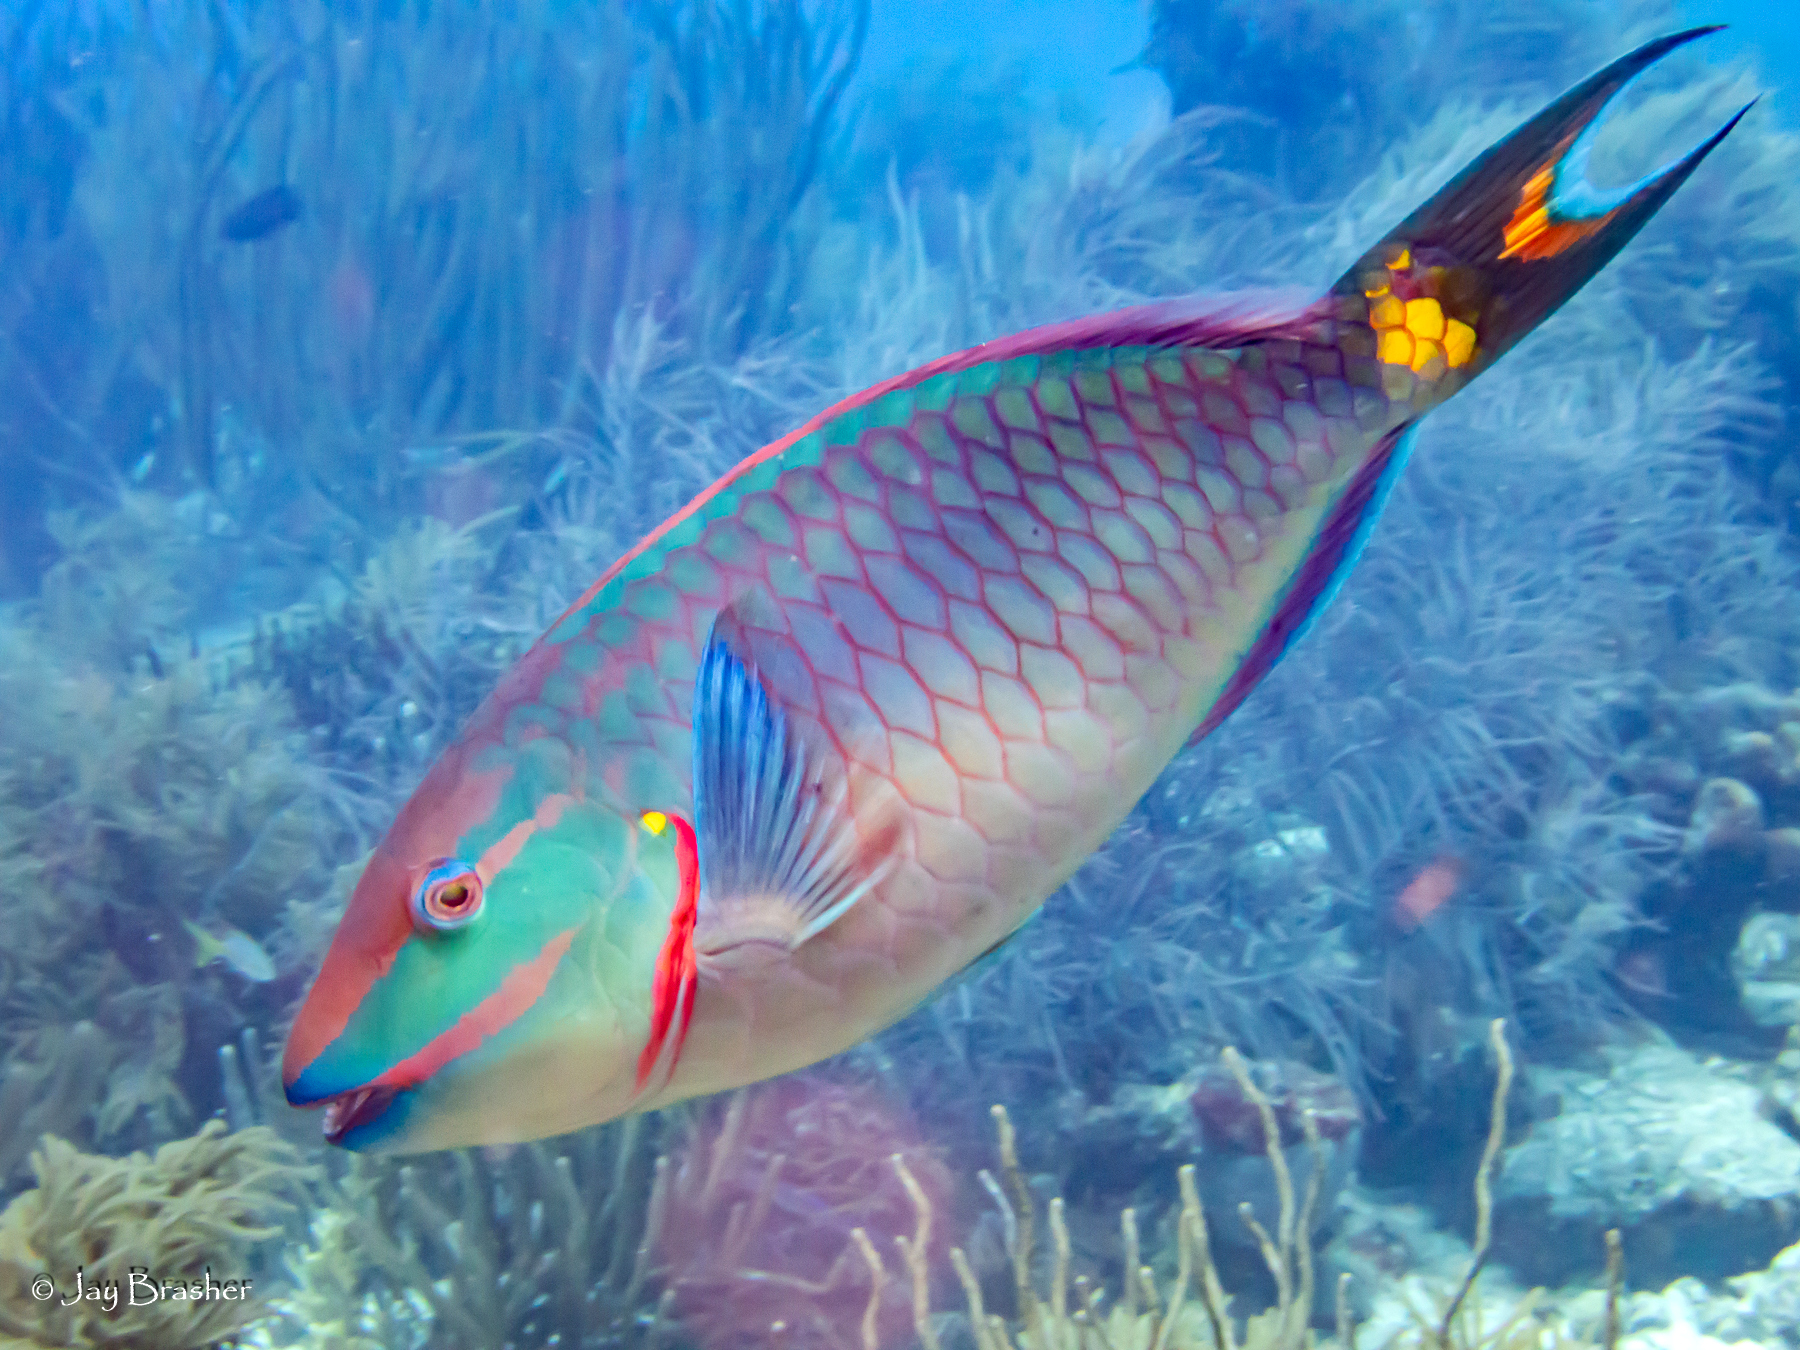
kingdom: Animalia
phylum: Chordata
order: Perciformes
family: Scaridae
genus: Sparisoma
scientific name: Sparisoma viride
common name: Stoplight parrotfish
